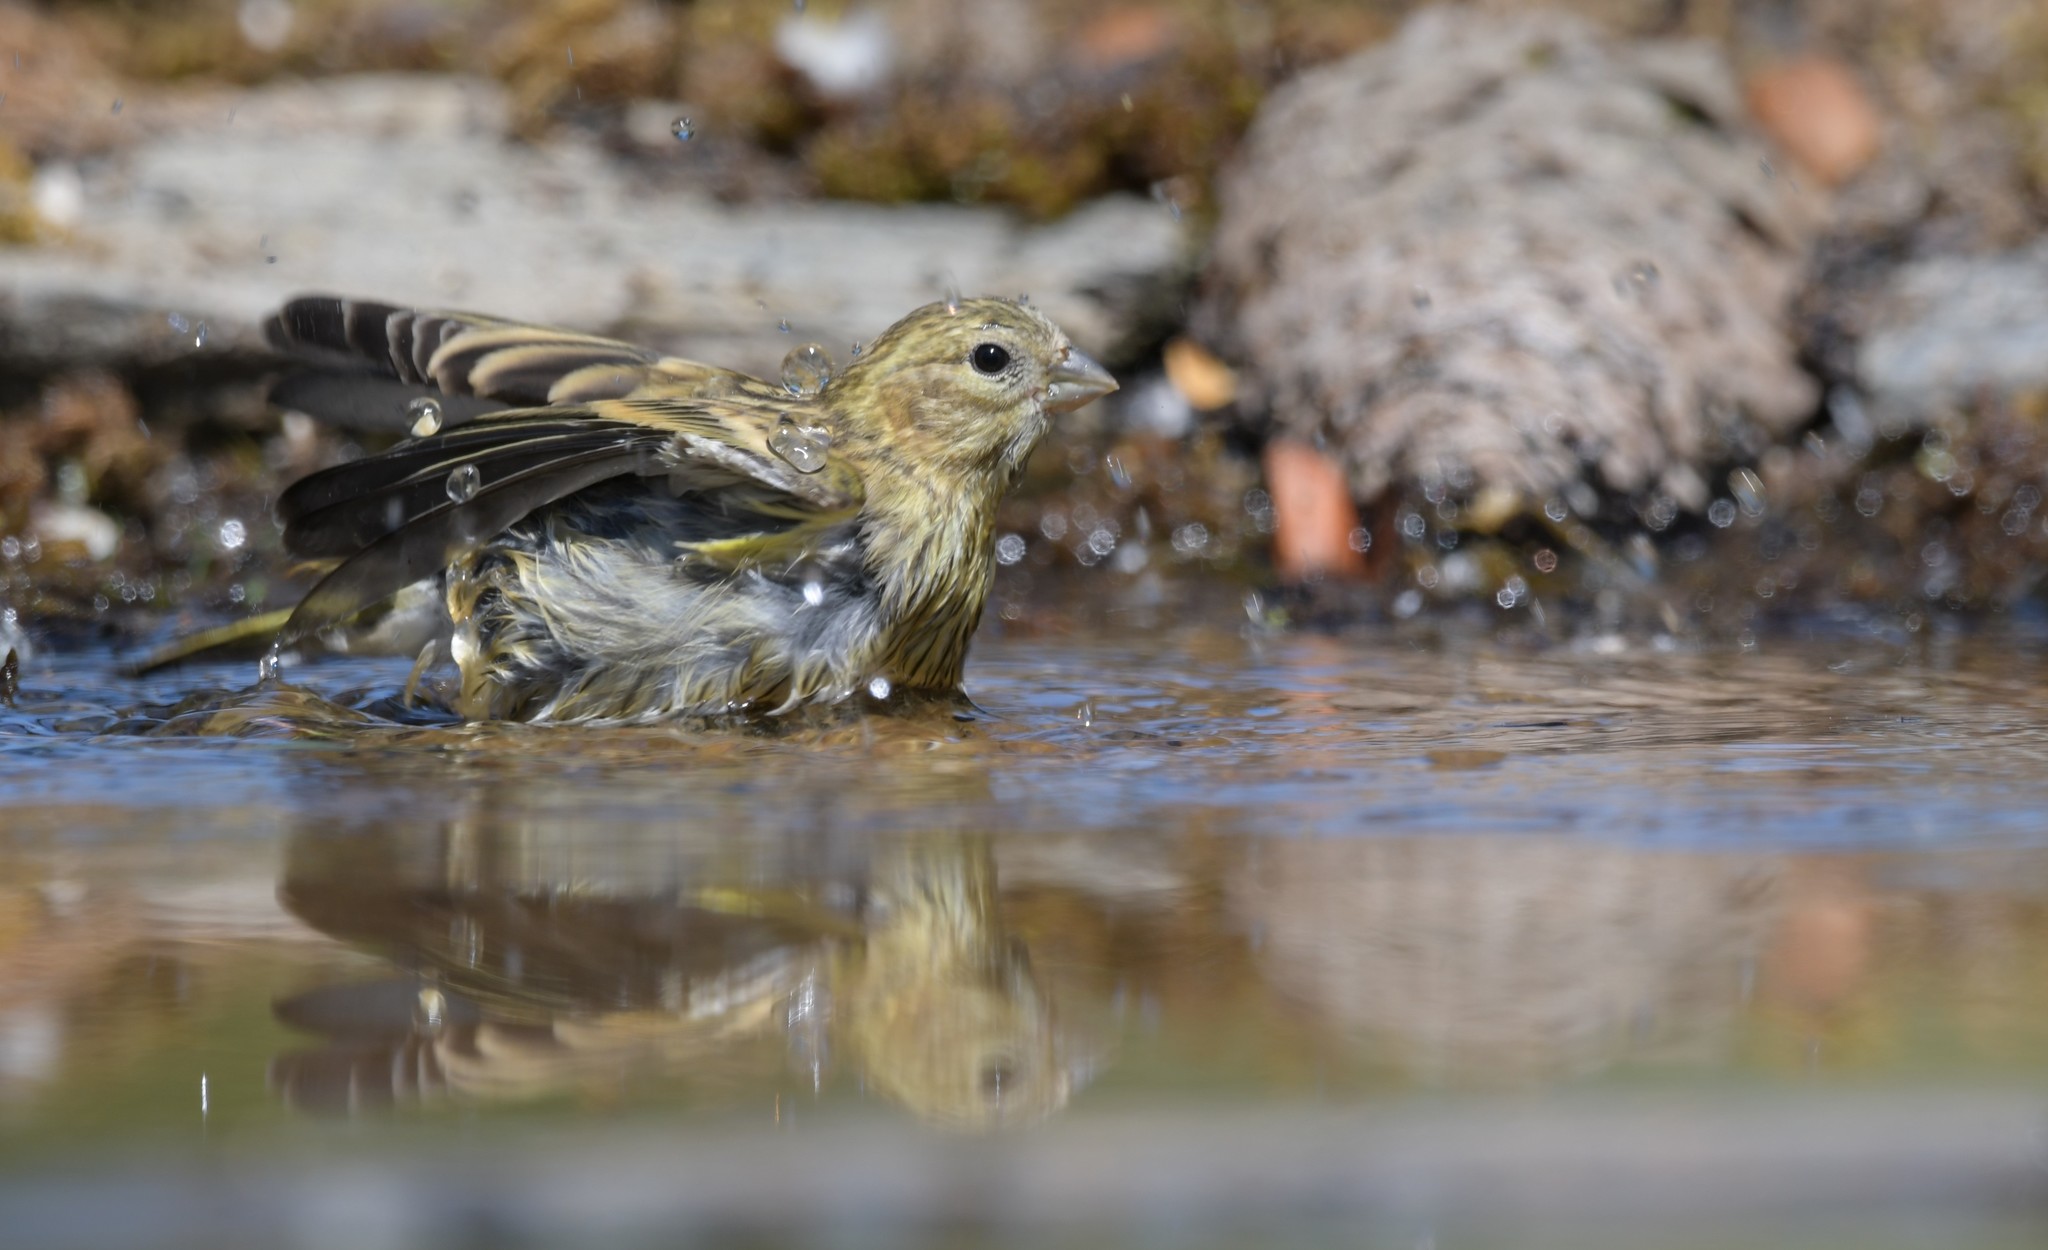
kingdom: Animalia
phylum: Chordata
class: Aves
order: Passeriformes
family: Fringillidae
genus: Serinus
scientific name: Serinus serinus
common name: European serin
